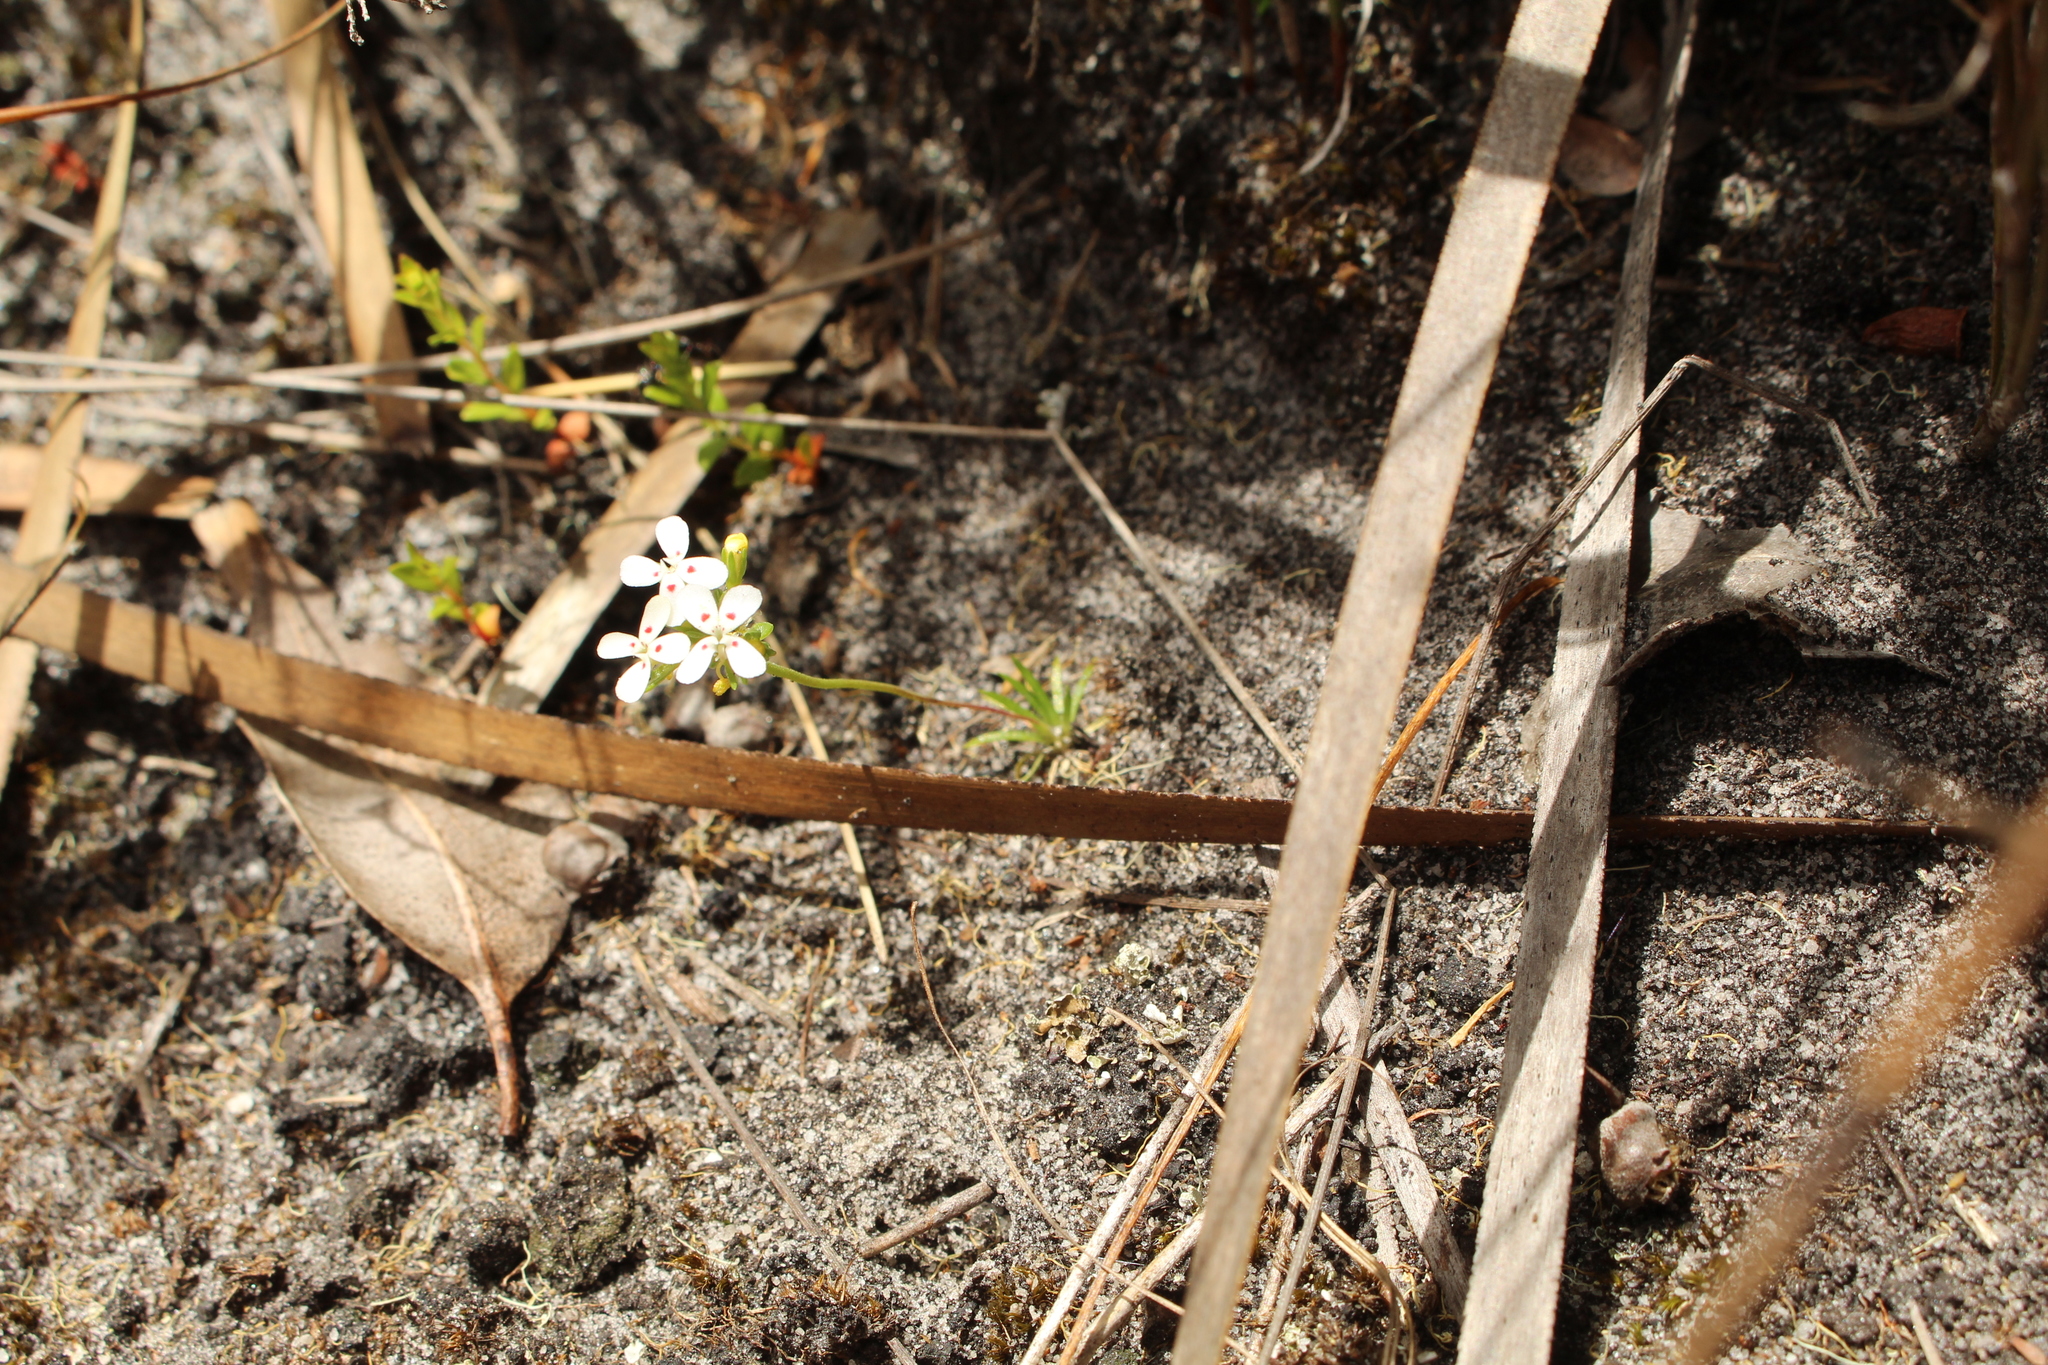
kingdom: Plantae
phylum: Tracheophyta
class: Magnoliopsida
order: Asterales
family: Stylidiaceae
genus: Stylidium
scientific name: Stylidium guttatum
